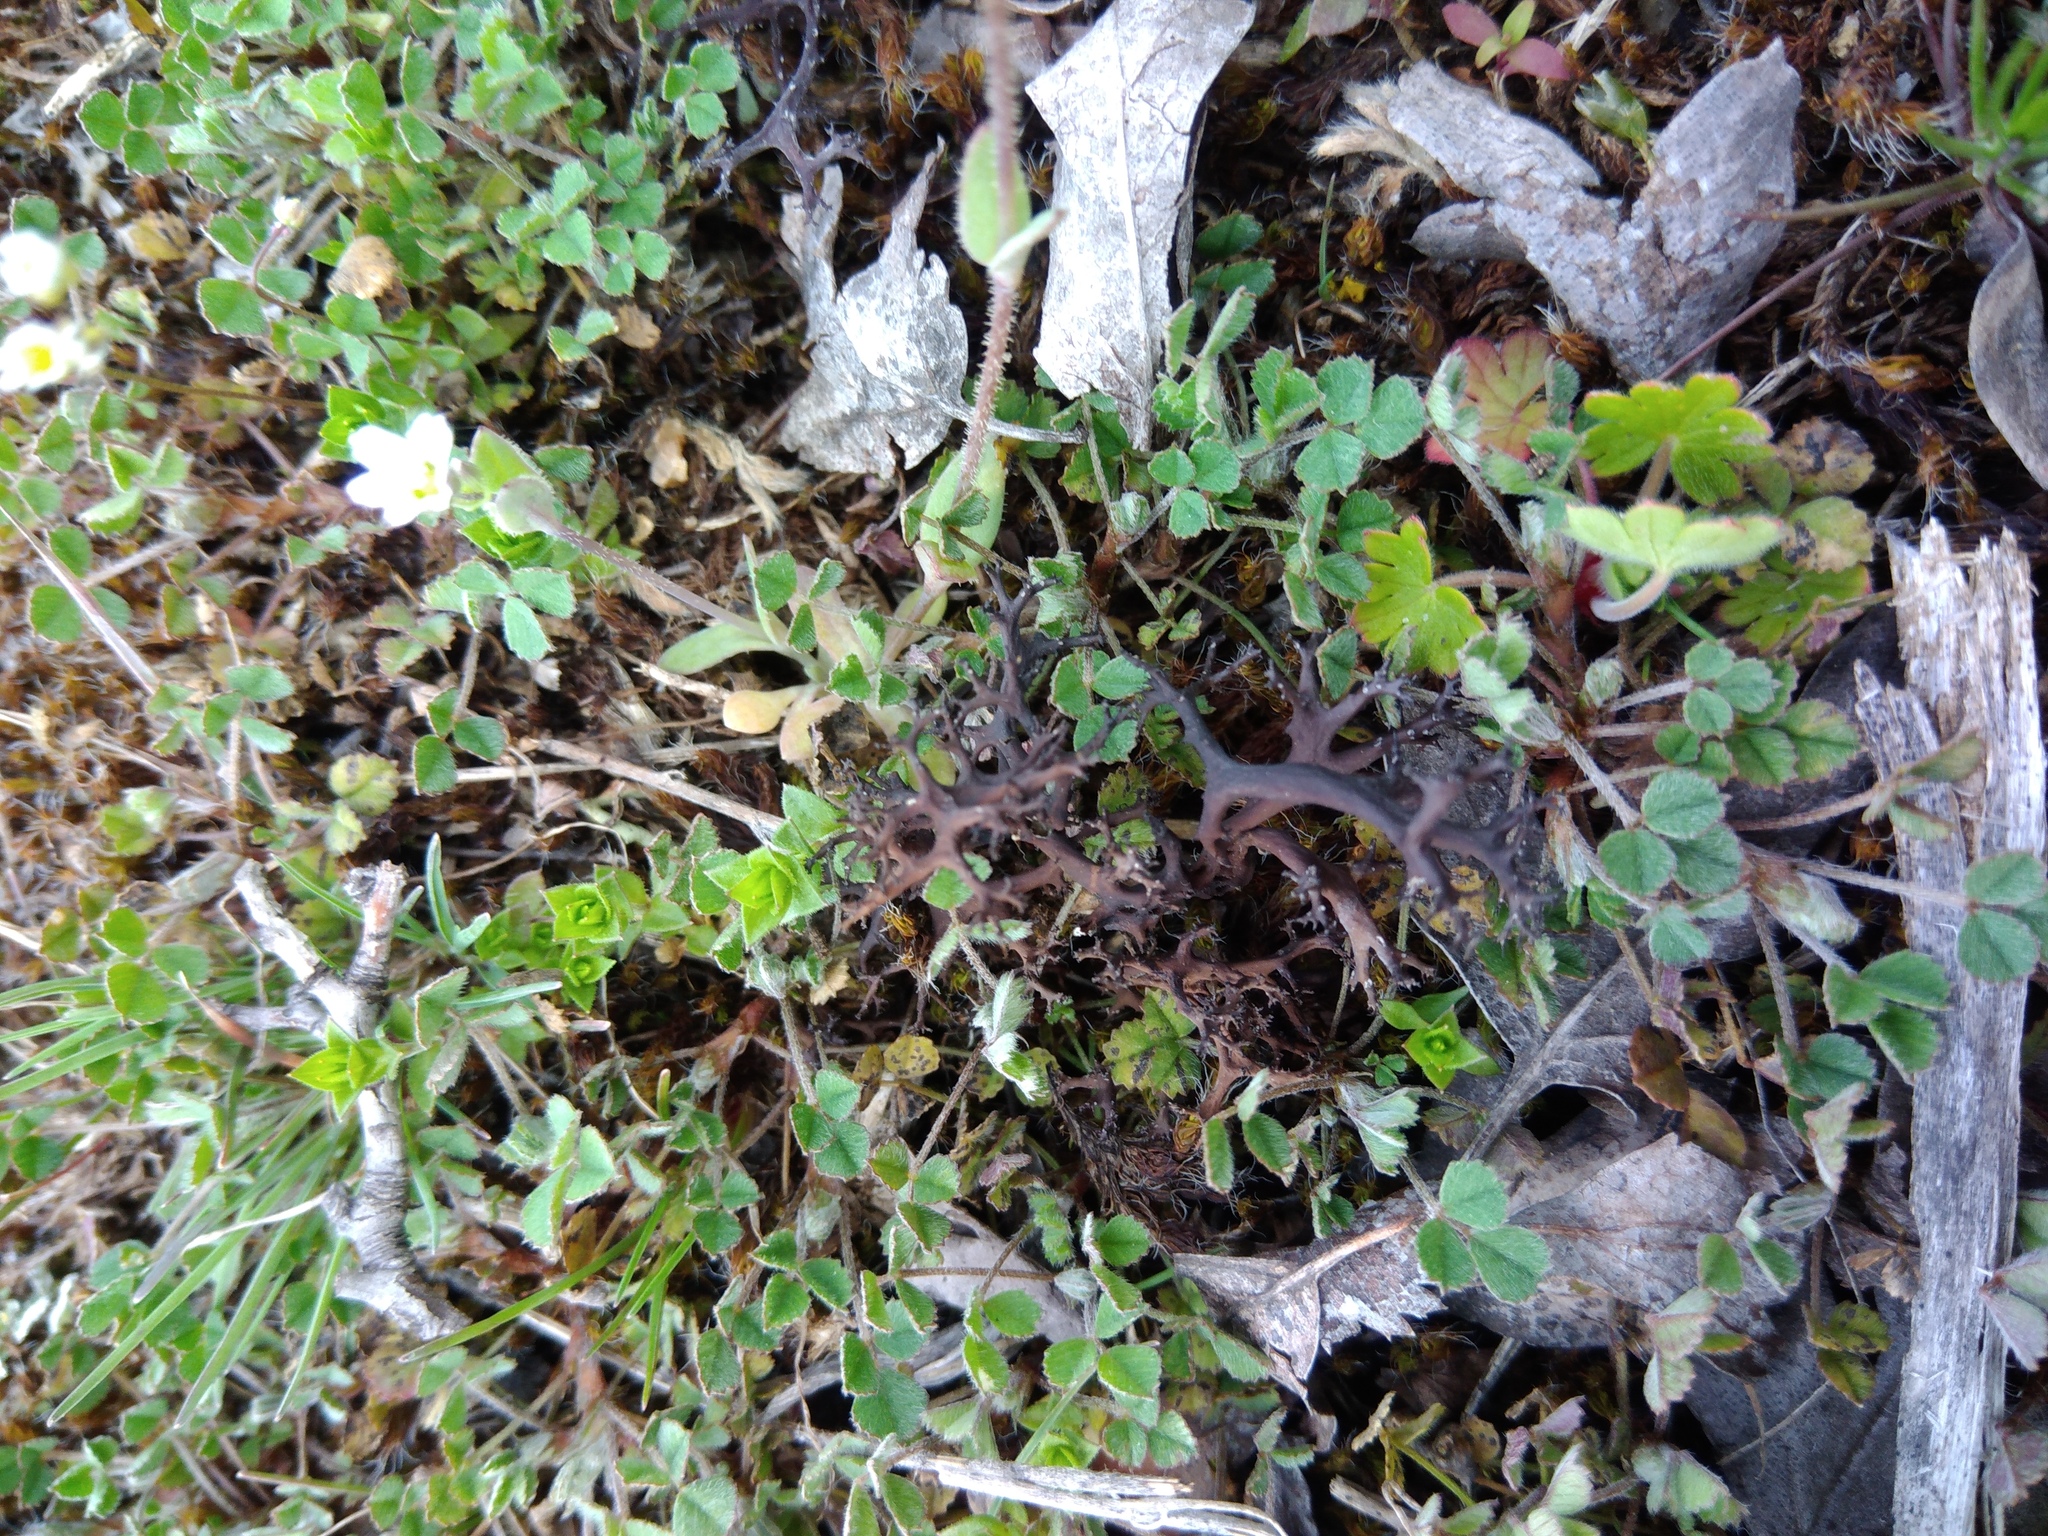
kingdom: Fungi
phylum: Ascomycota
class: Lecanoromycetes
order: Lecanorales
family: Parmeliaceae
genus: Cetraria
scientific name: Cetraria aculeata
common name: Spiny heath lichen
